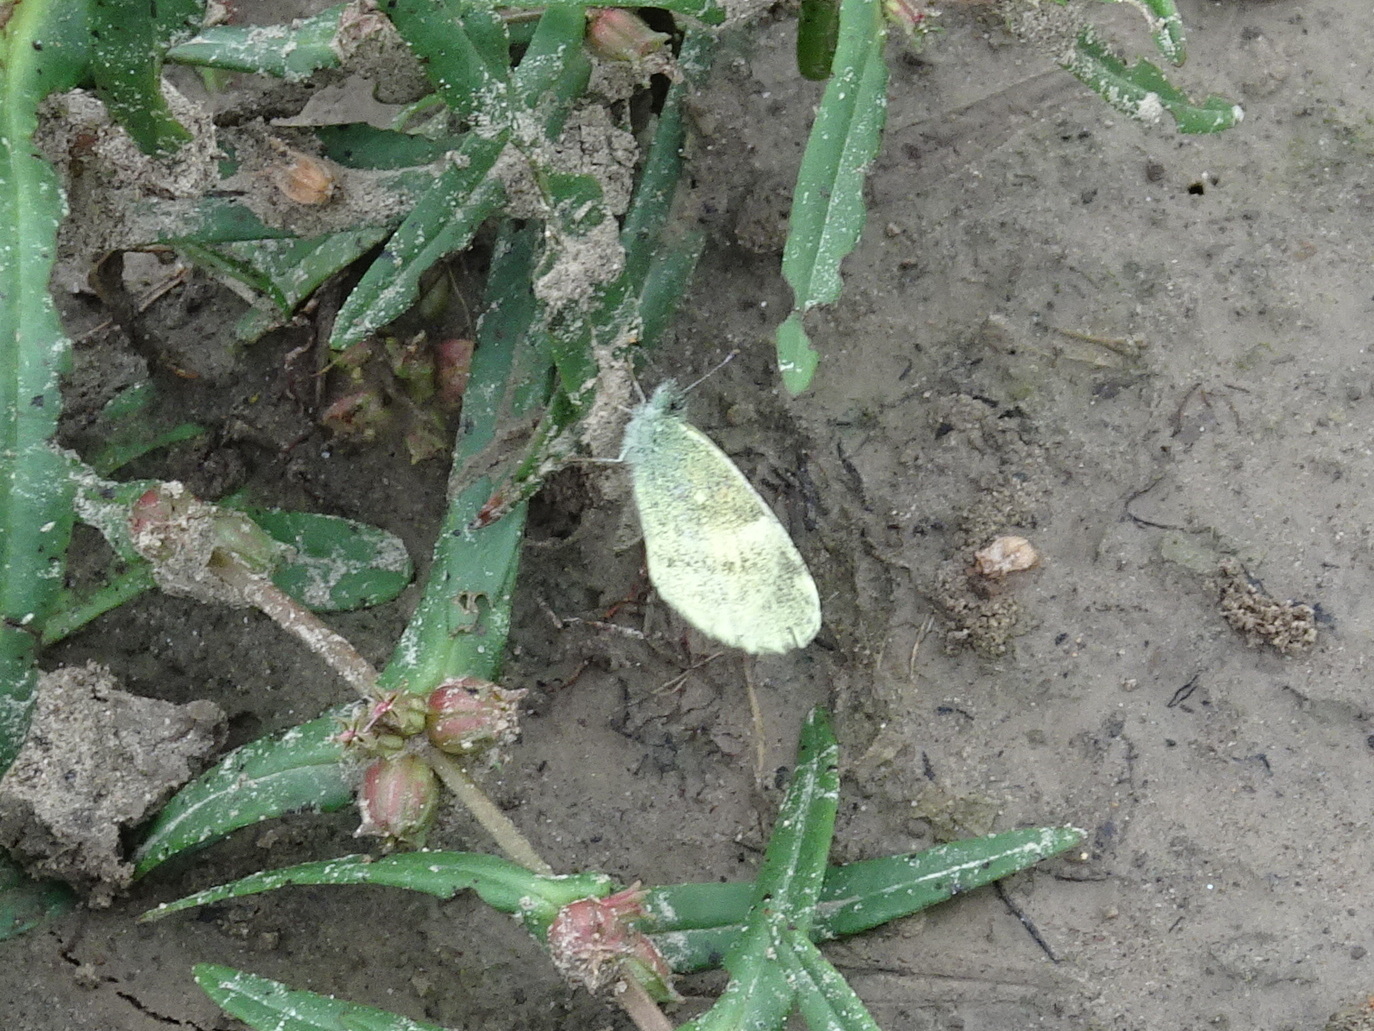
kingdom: Animalia
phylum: Arthropoda
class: Insecta
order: Lepidoptera
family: Pieridae
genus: Nathalis
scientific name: Nathalis iole
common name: Dainty sulphur
